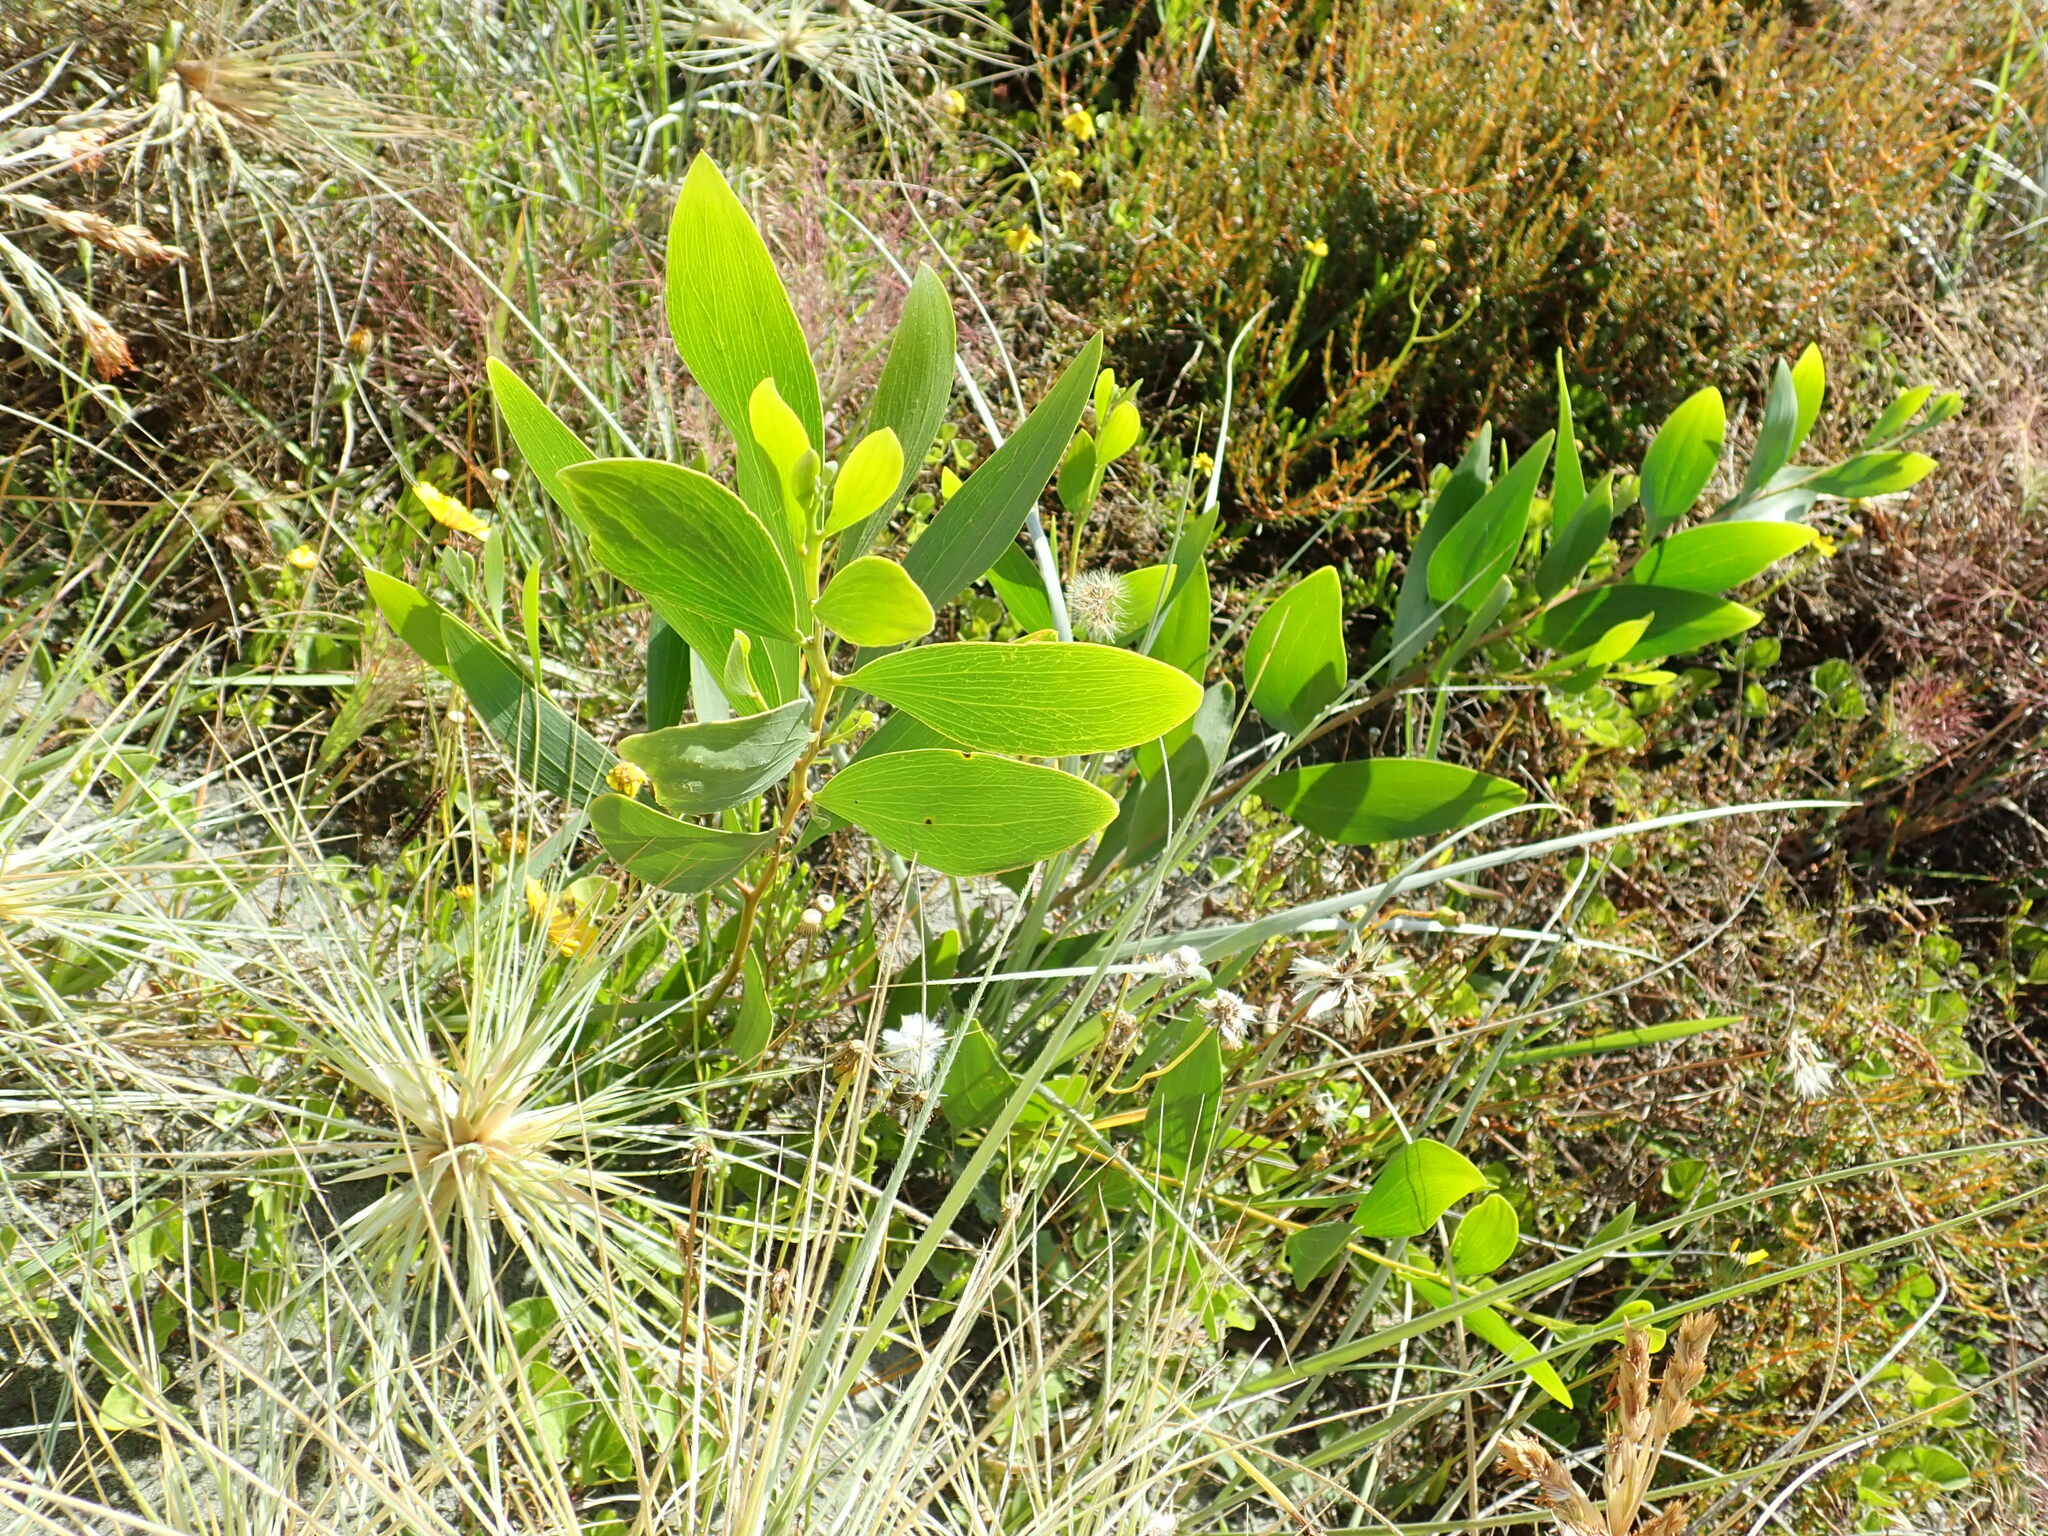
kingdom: Plantae
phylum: Tracheophyta
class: Magnoliopsida
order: Fabales
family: Fabaceae
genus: Acacia
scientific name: Acacia longifolia
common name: Sydney golden wattle
